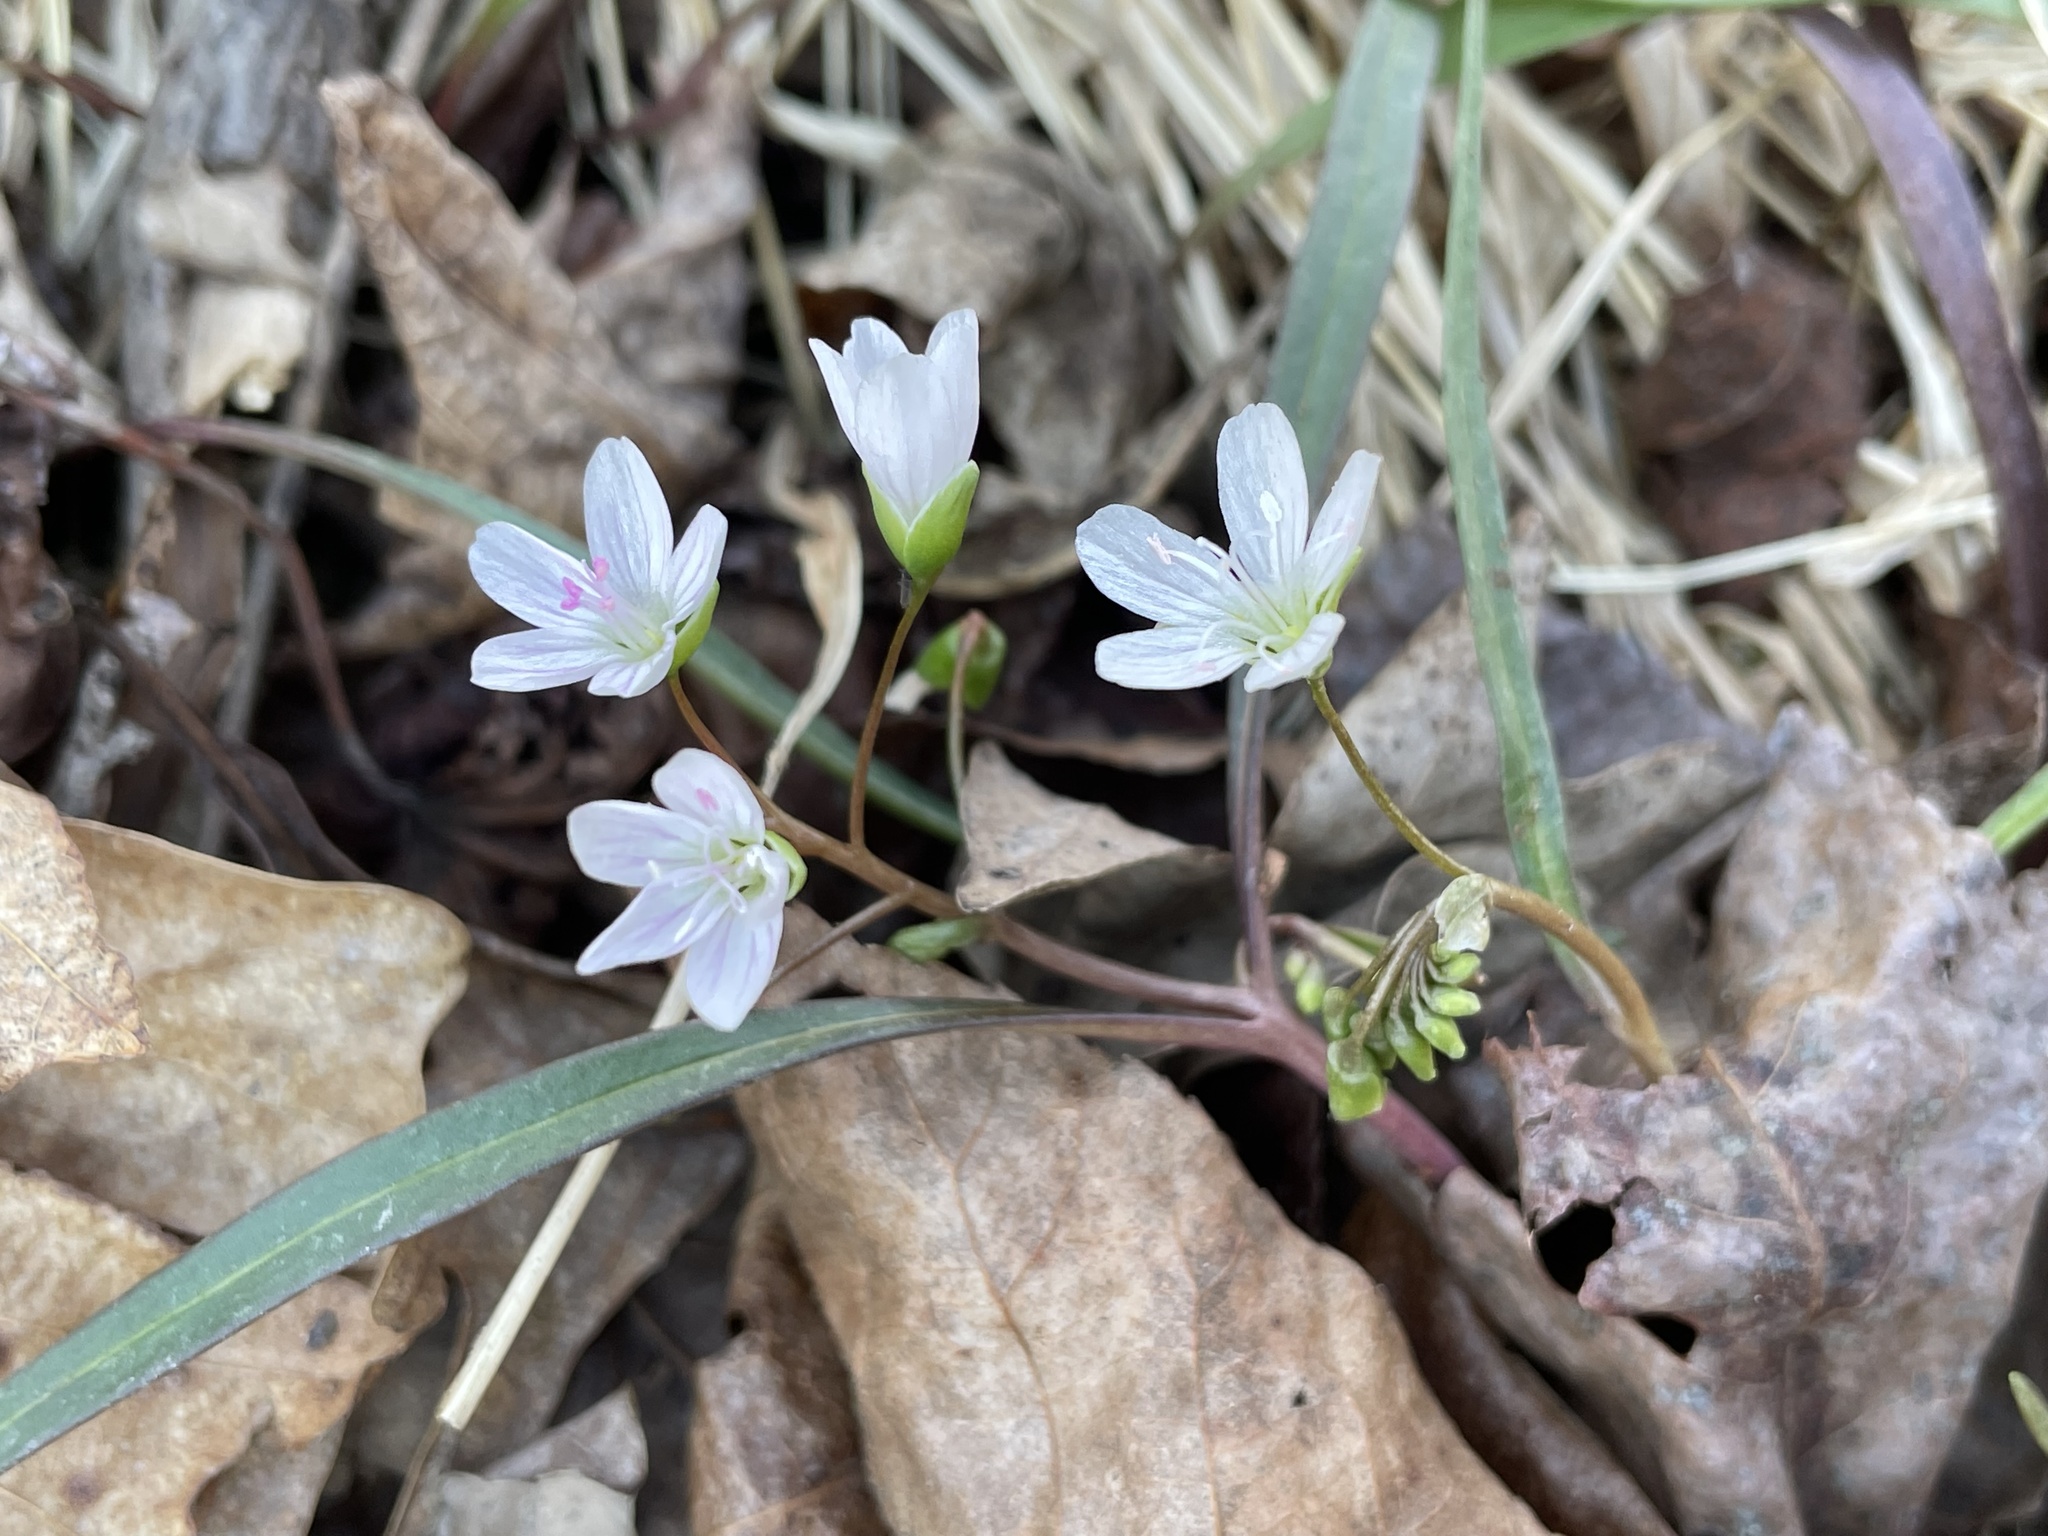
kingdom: Plantae
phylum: Tracheophyta
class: Magnoliopsida
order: Caryophyllales
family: Montiaceae
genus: Claytonia
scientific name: Claytonia virginica
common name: Virginia springbeauty
